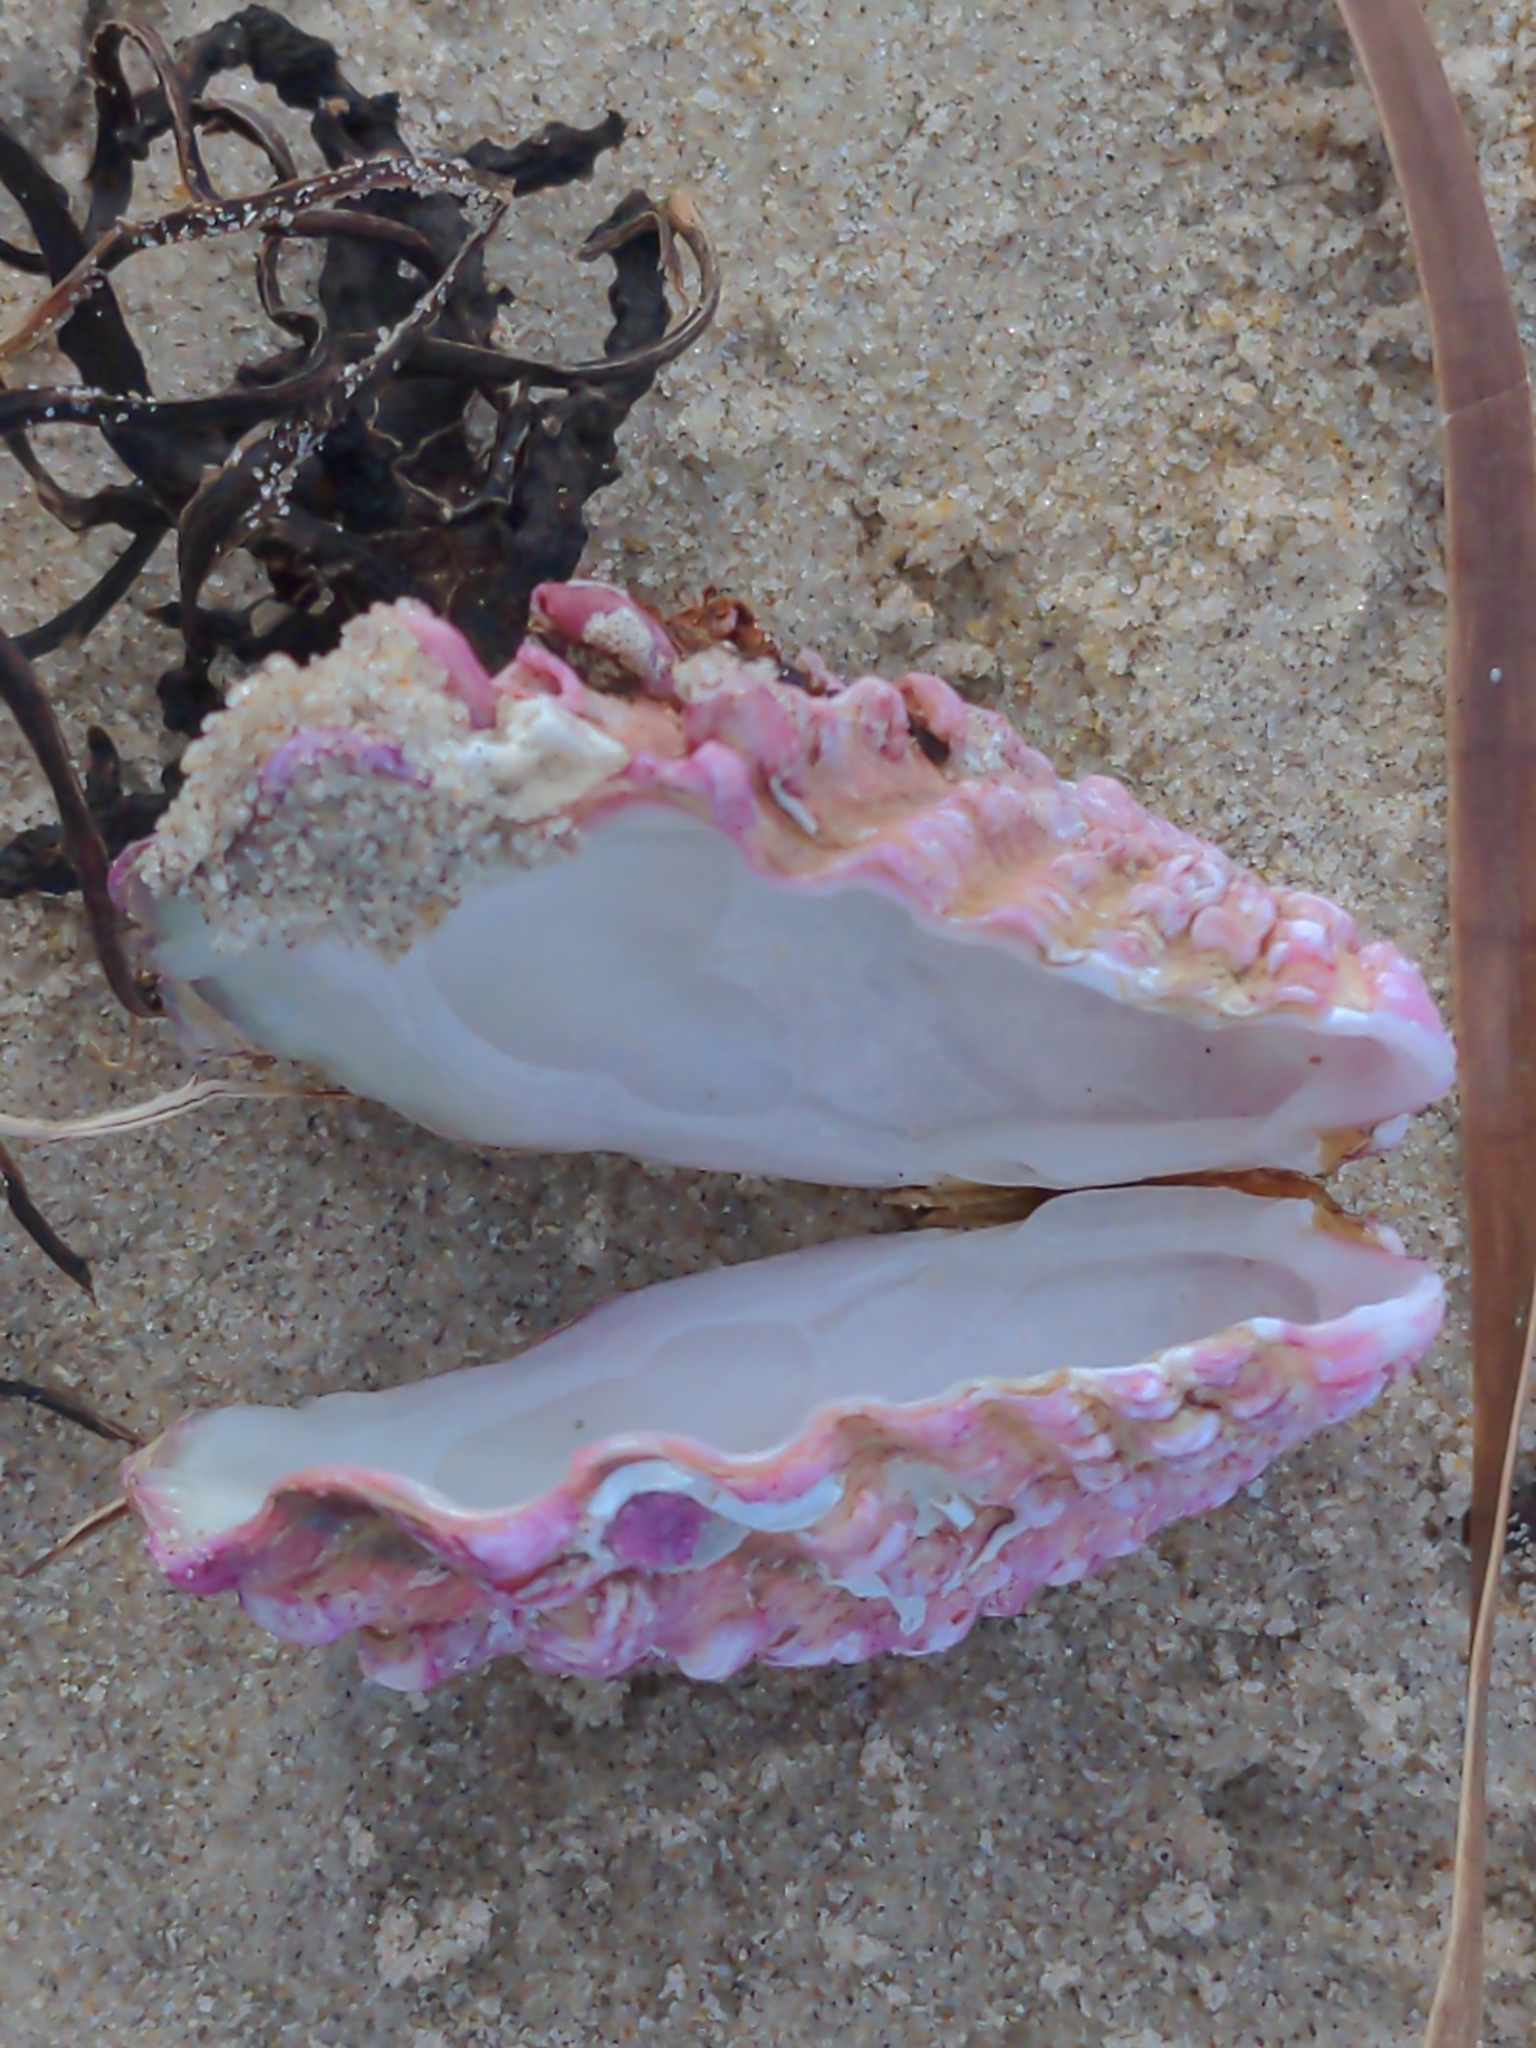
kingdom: Animalia
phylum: Mollusca
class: Bivalvia
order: Carditida
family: Carditidae
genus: Cardita
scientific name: Cardita crassicosta
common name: Large-ribbed cardita
